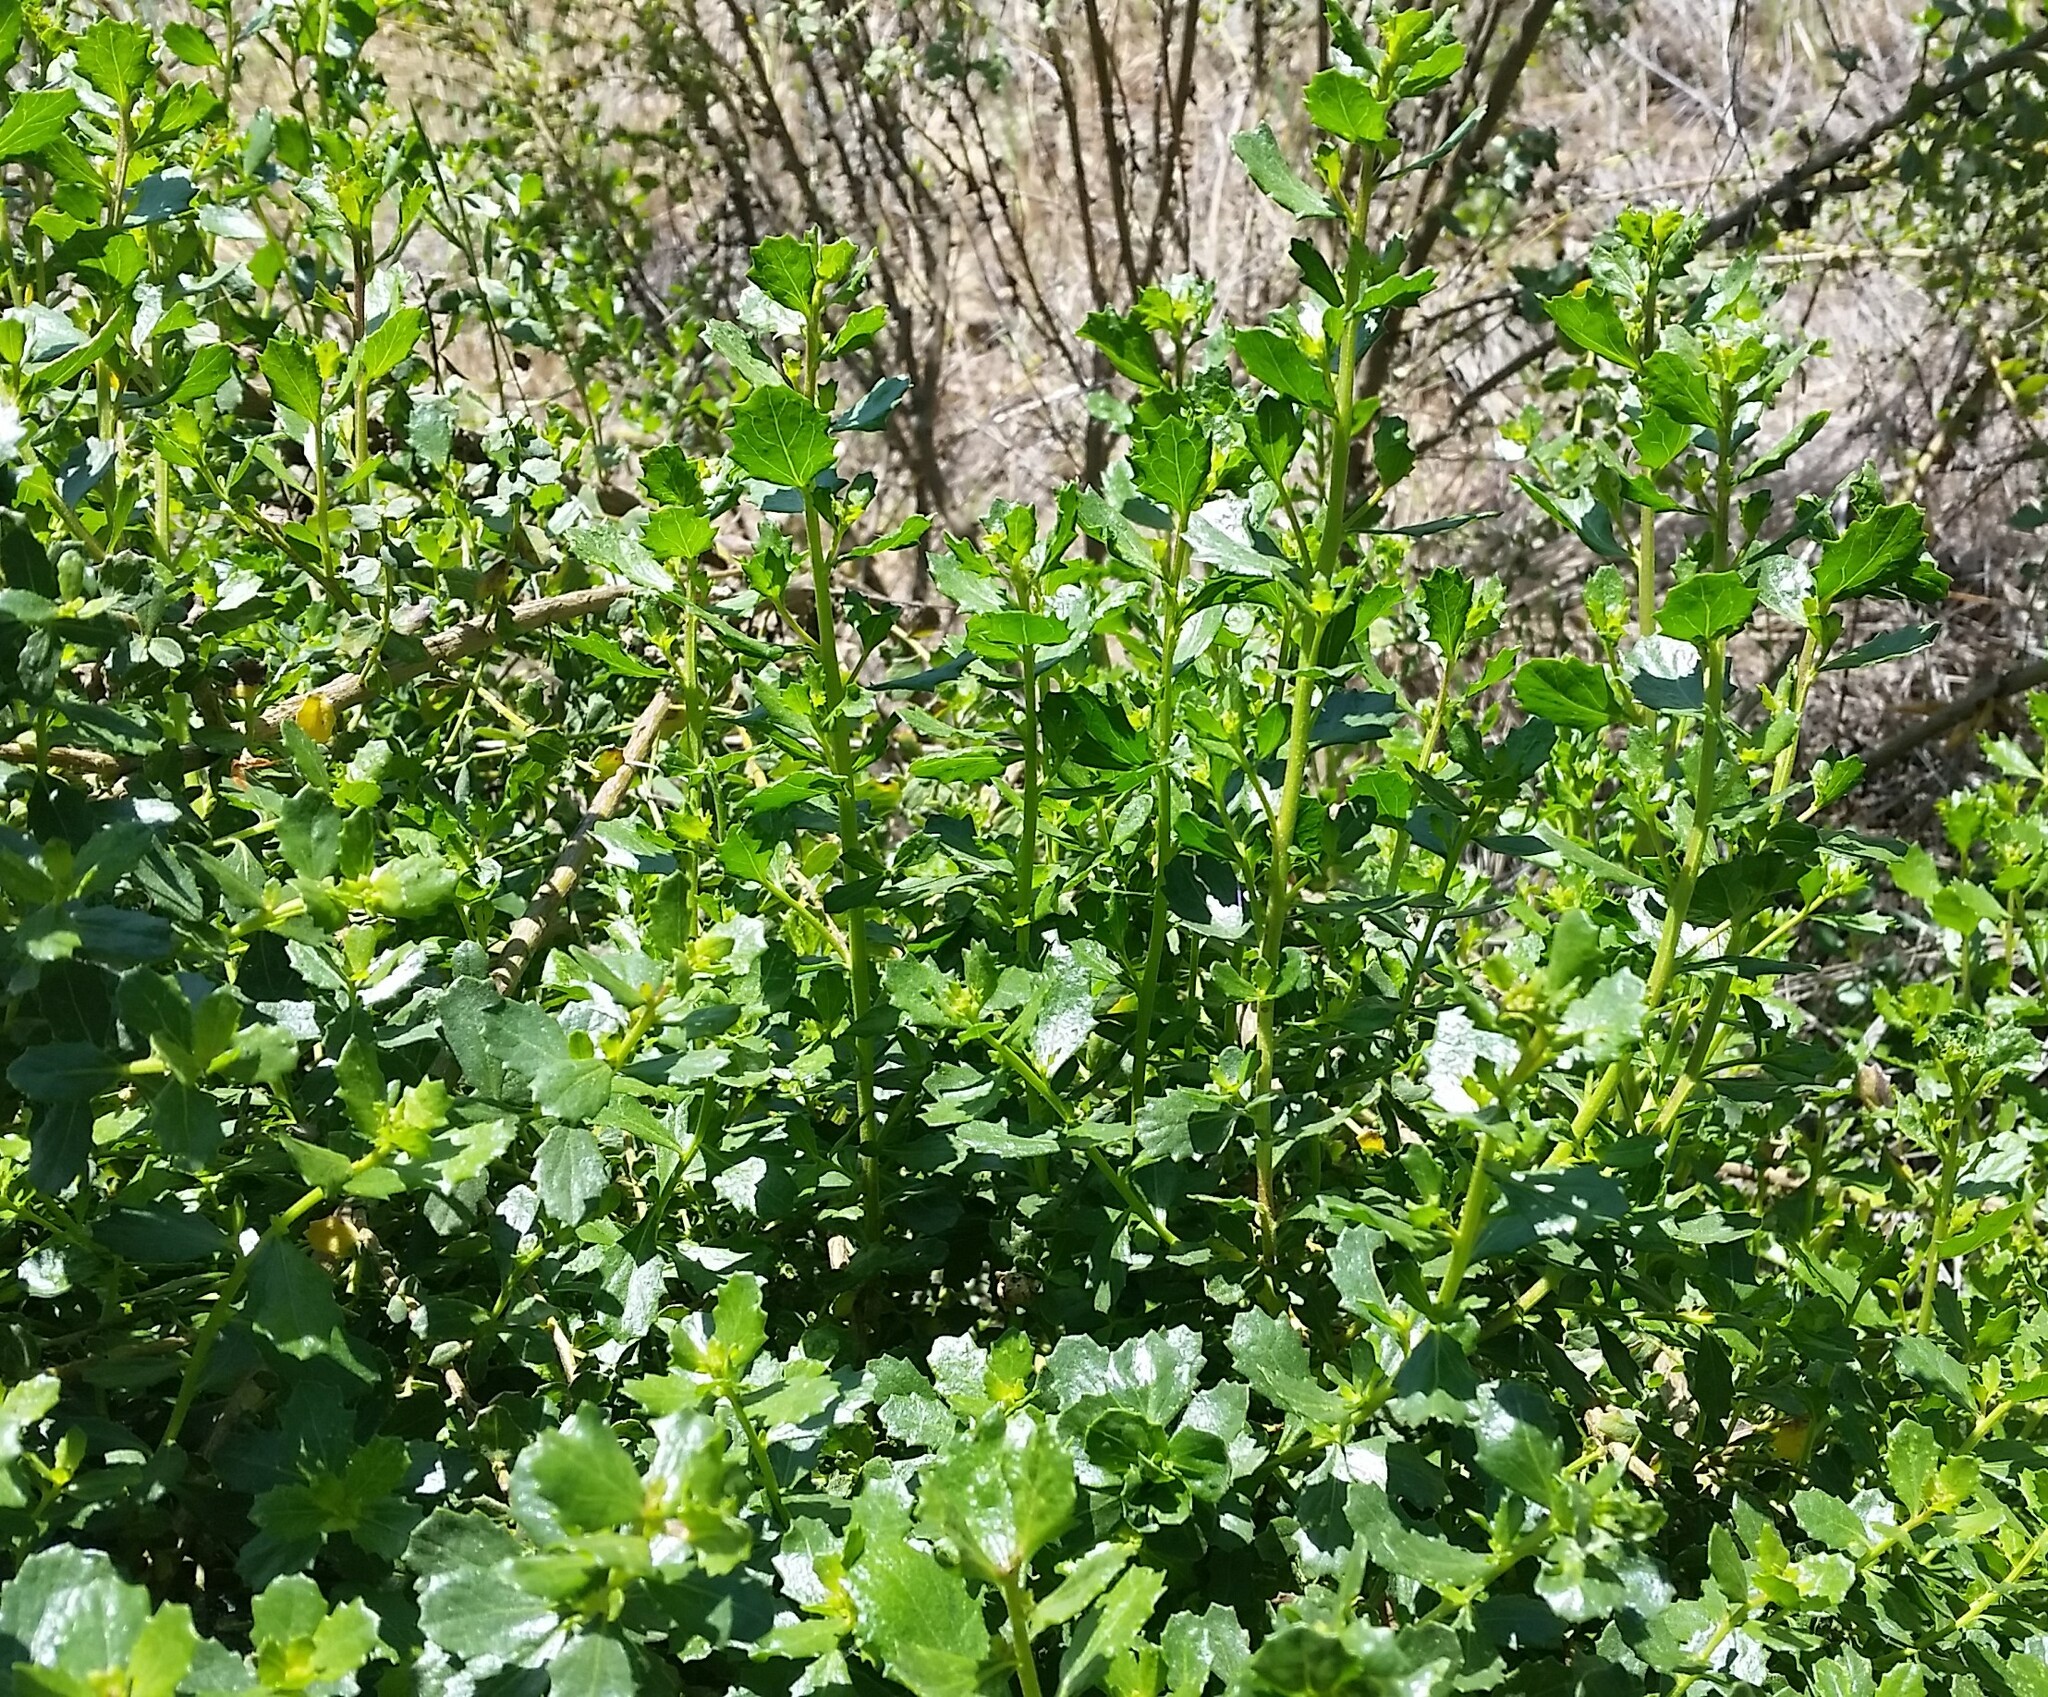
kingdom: Plantae
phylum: Tracheophyta
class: Magnoliopsida
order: Asterales
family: Asteraceae
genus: Baccharis
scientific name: Baccharis pilularis
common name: Coyotebrush
